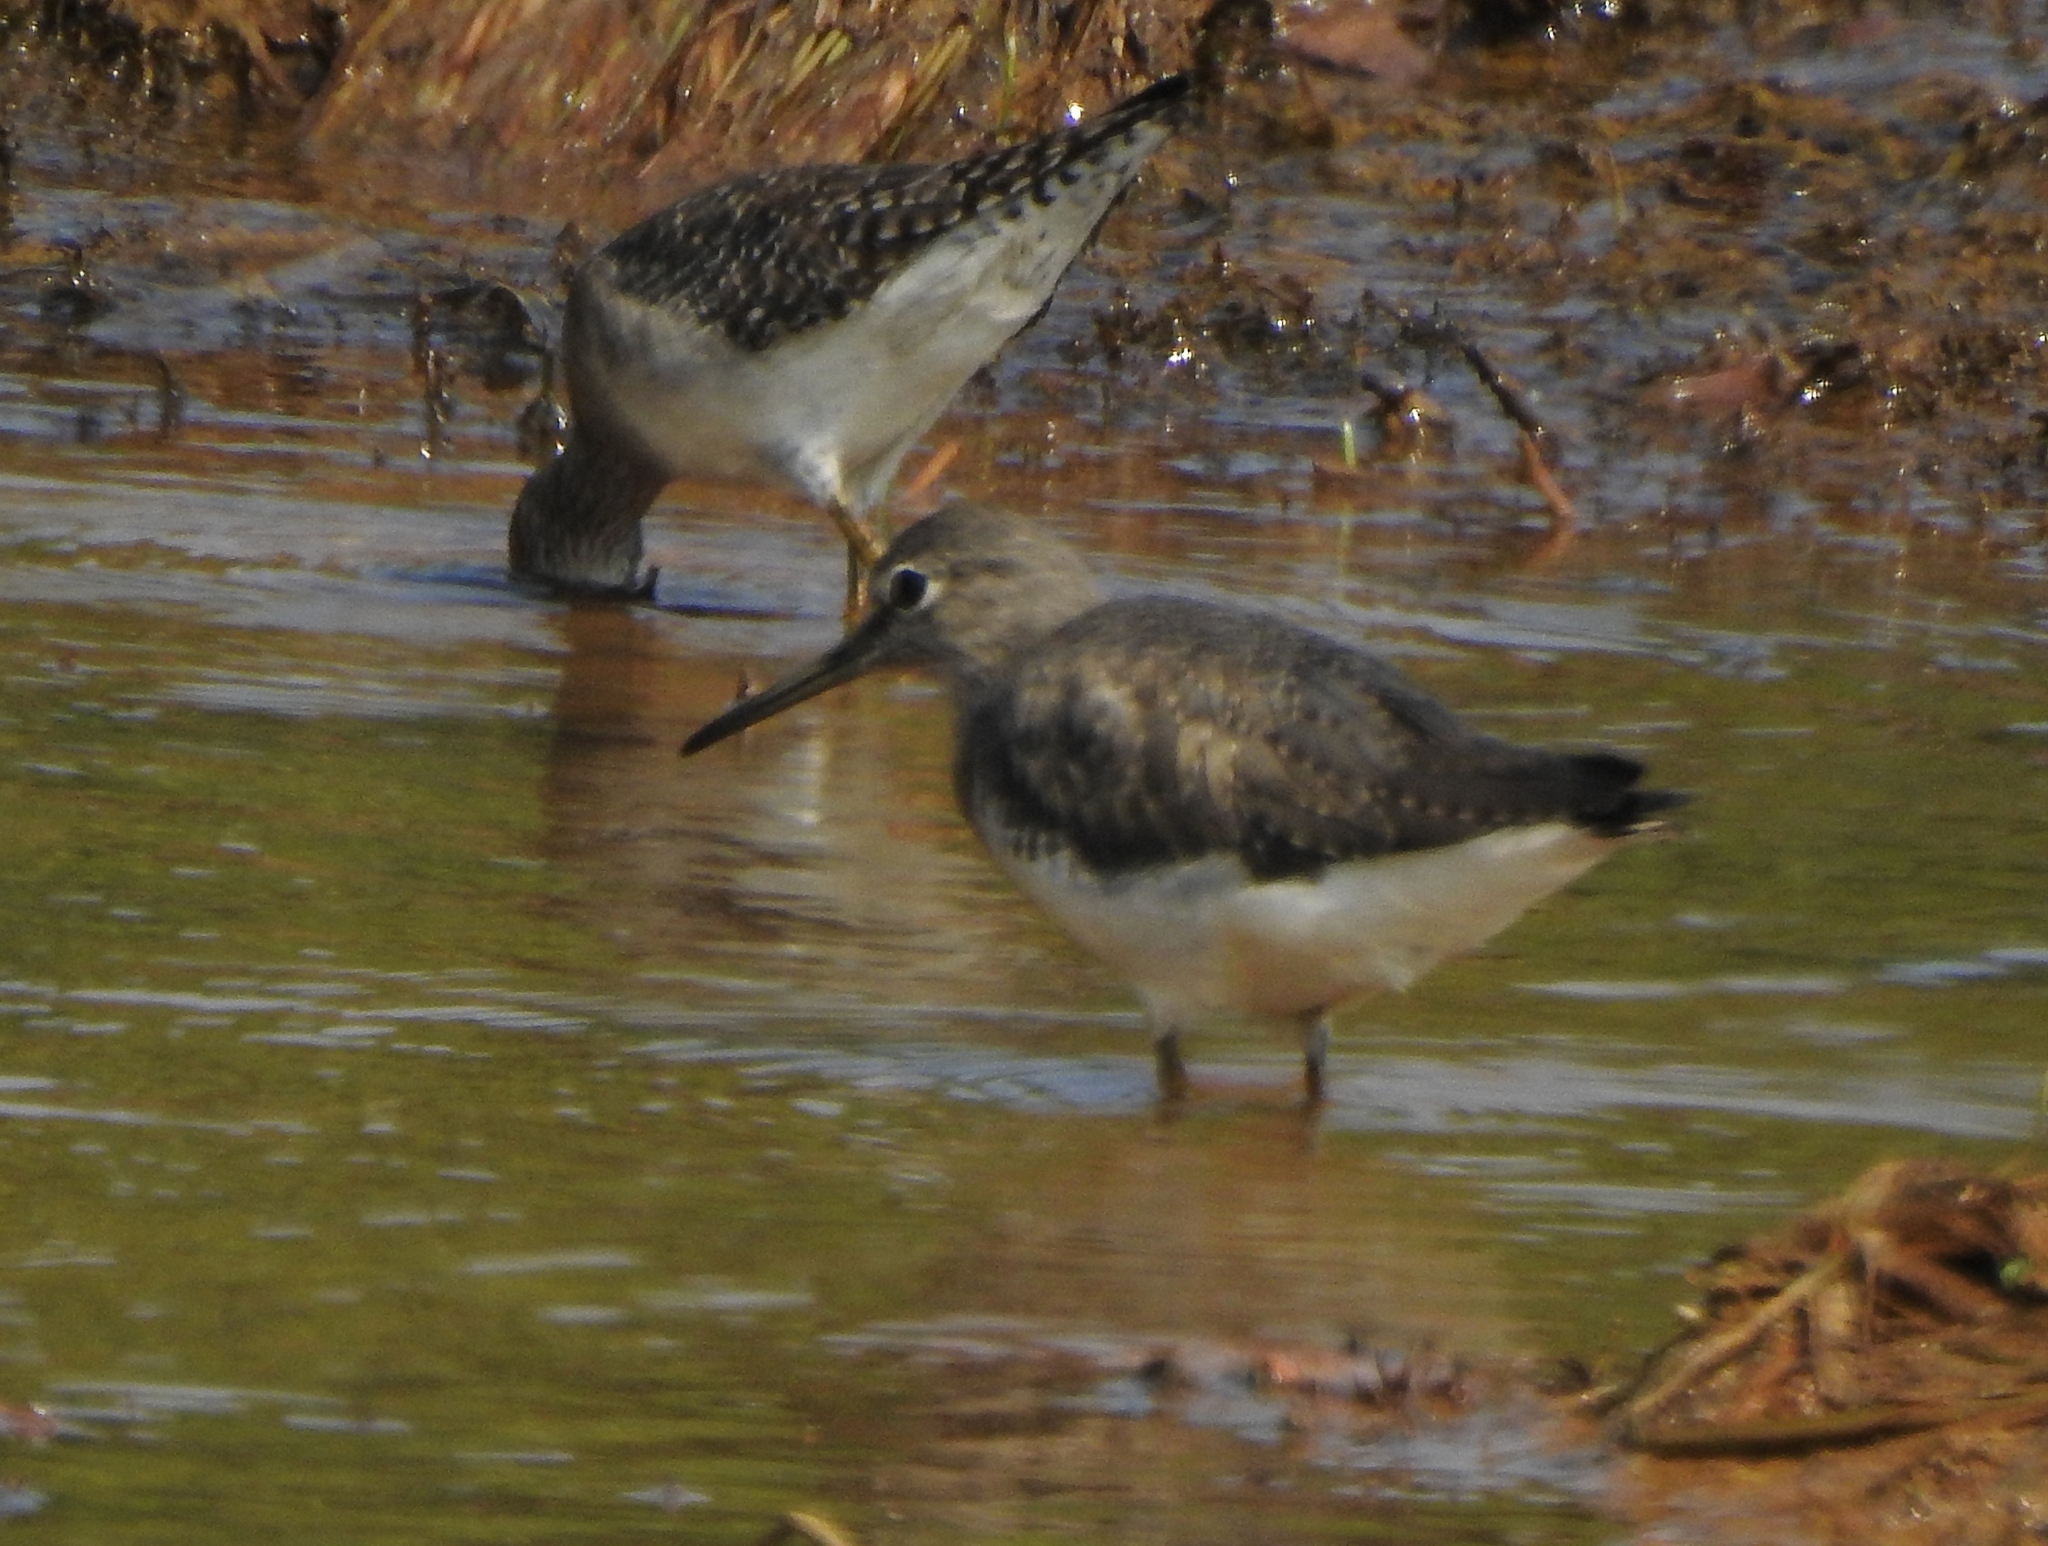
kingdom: Animalia
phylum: Chordata
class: Aves
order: Charadriiformes
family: Scolopacidae
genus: Tringa
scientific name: Tringa glareola
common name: Wood sandpiper
